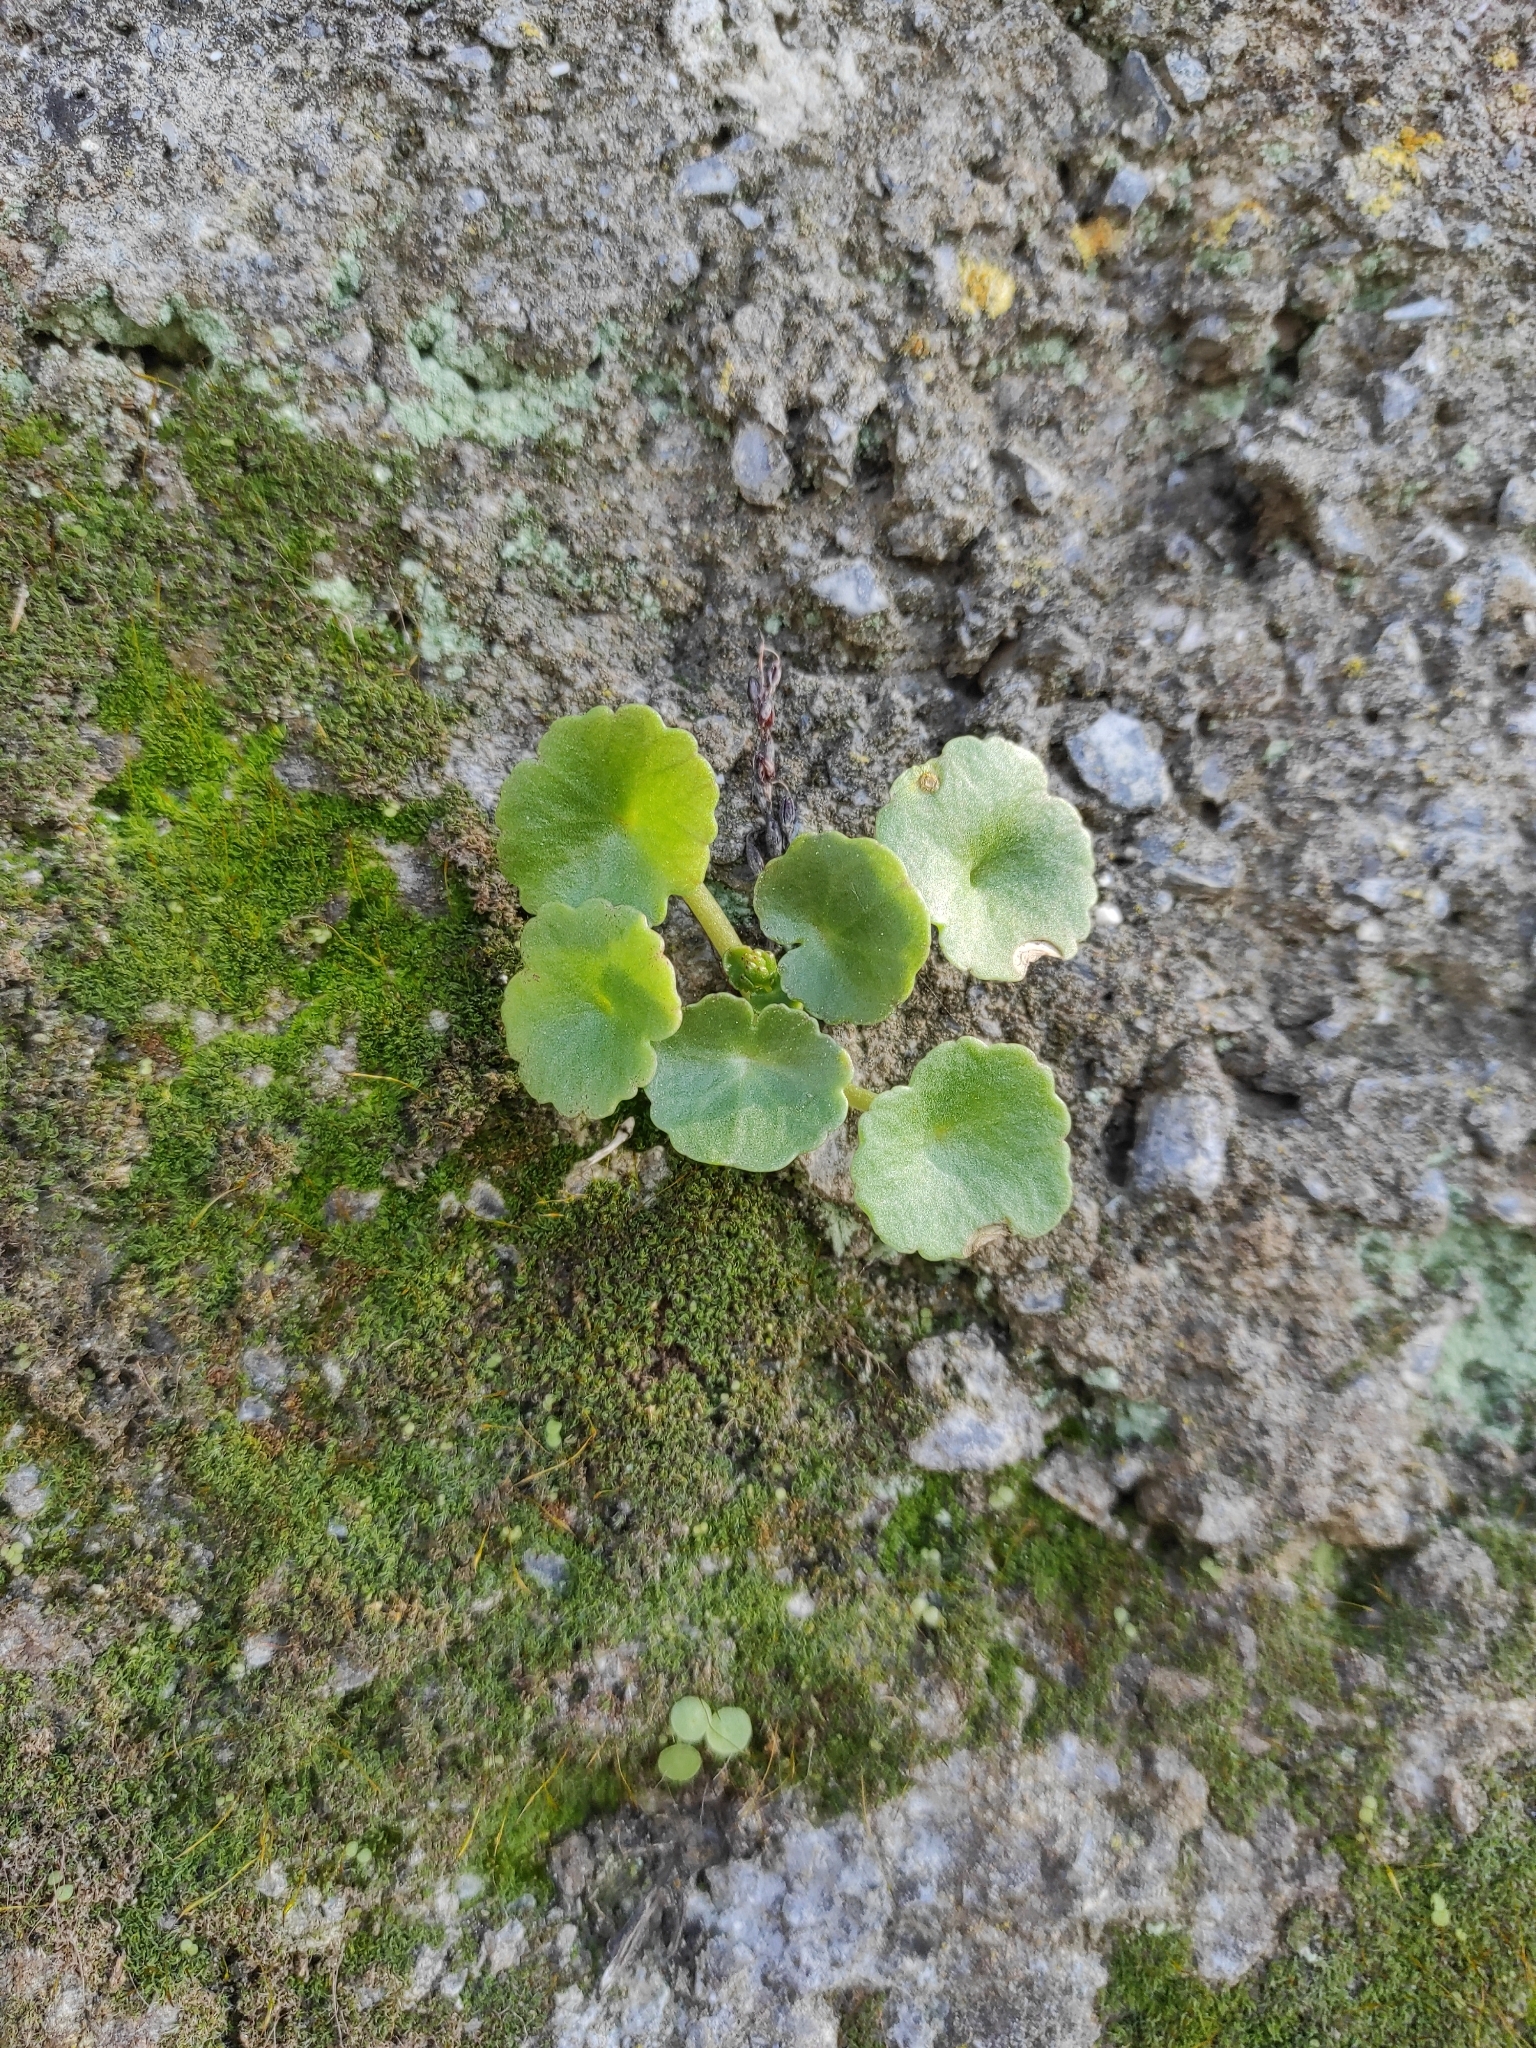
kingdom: Plantae
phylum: Tracheophyta
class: Magnoliopsida
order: Saxifragales
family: Crassulaceae
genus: Umbilicus
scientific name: Umbilicus rupestris
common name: Navelwort
